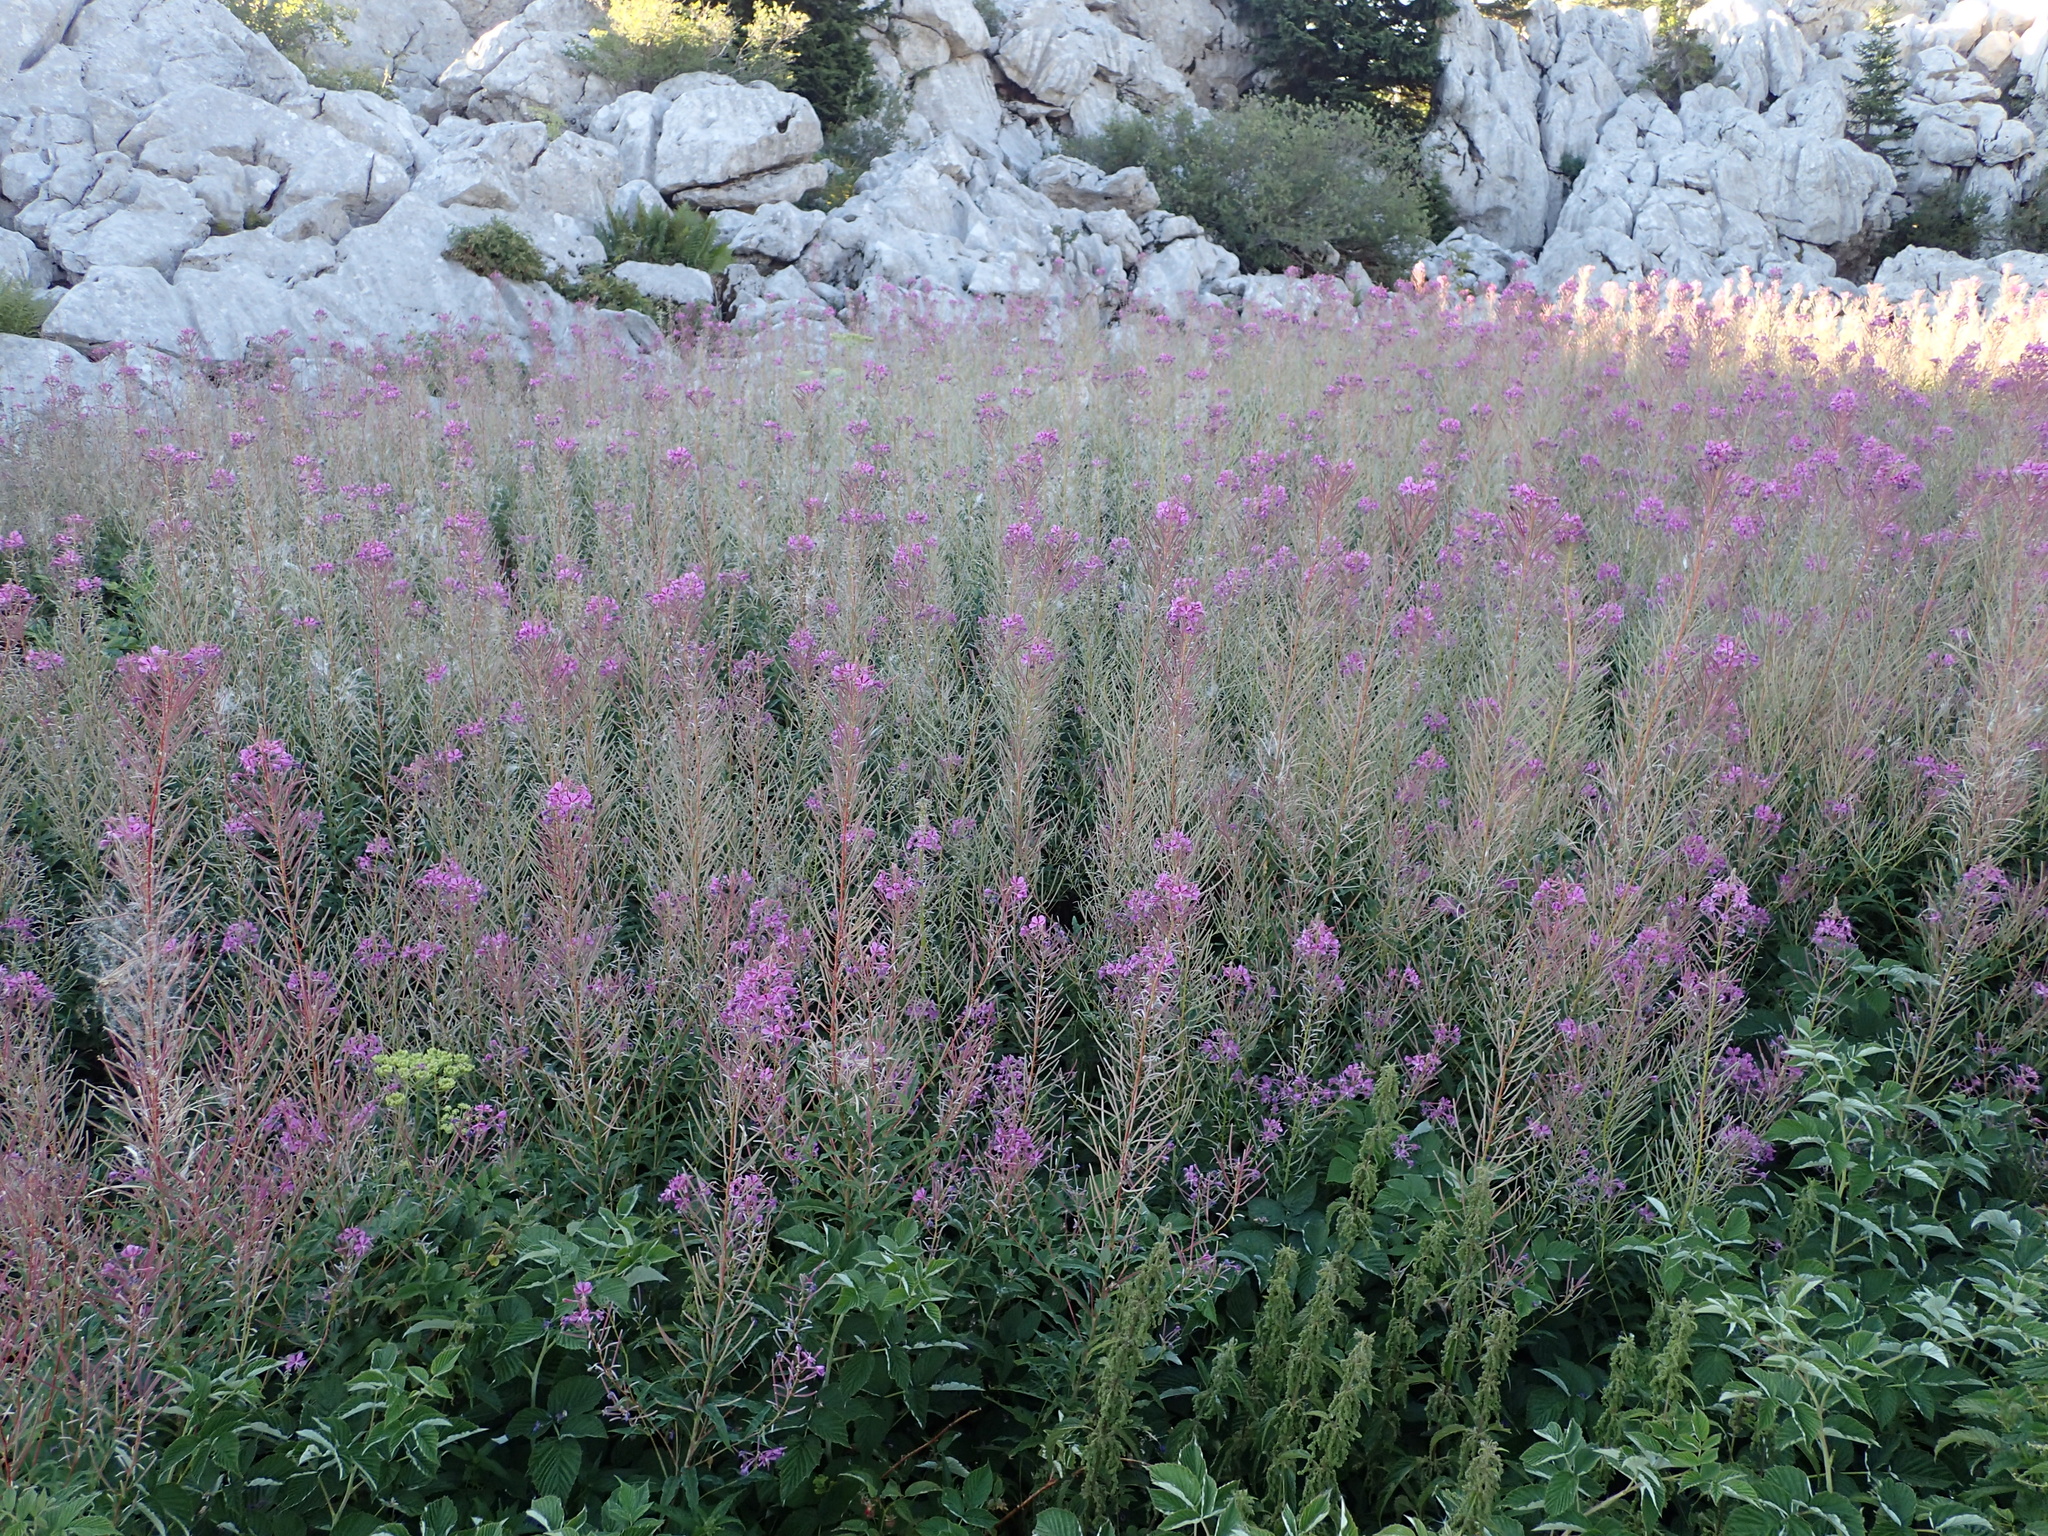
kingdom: Plantae
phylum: Tracheophyta
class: Magnoliopsida
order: Myrtales
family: Onagraceae
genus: Chamaenerion
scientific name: Chamaenerion angustifolium
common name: Fireweed
